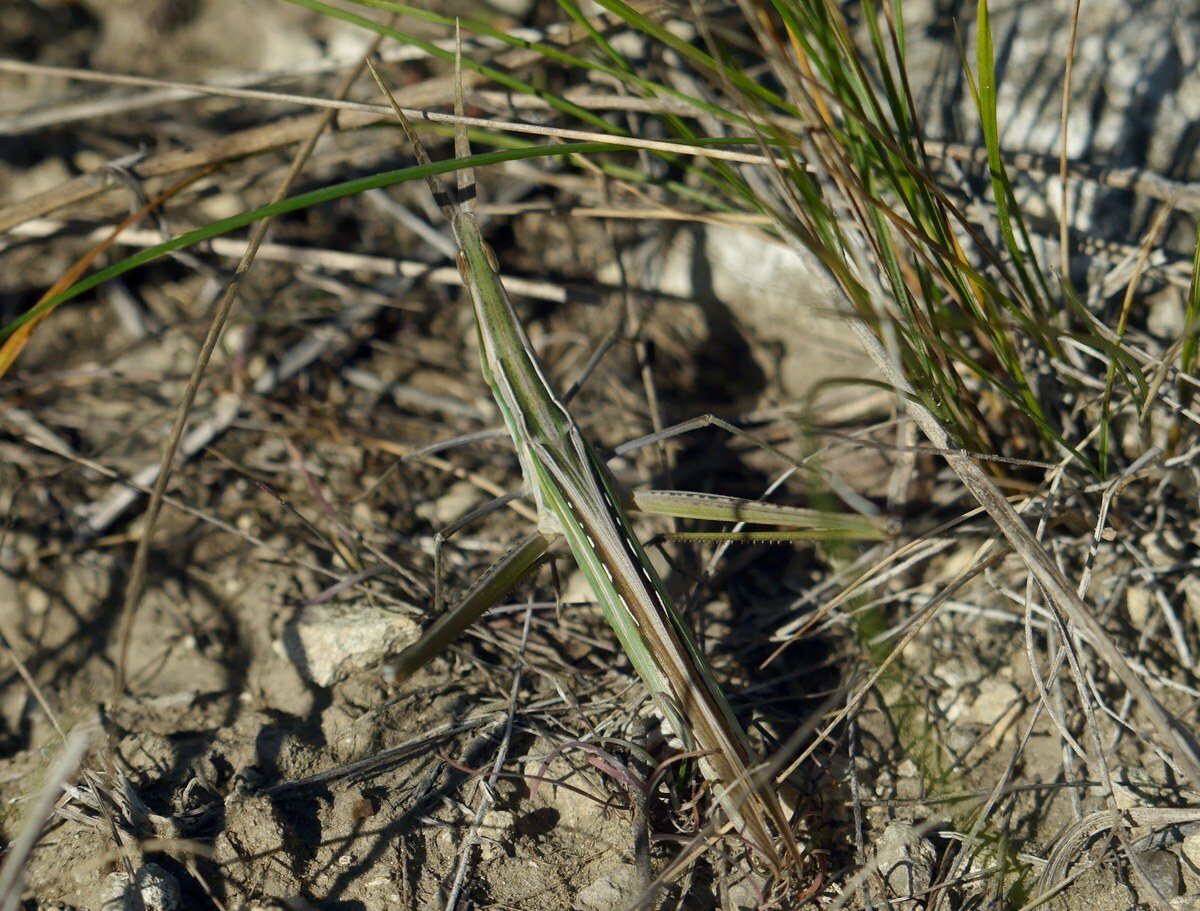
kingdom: Animalia
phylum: Arthropoda
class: Insecta
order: Orthoptera
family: Acrididae
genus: Acrida
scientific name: Acrida ungarica
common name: Common cone-headed grasshopper
